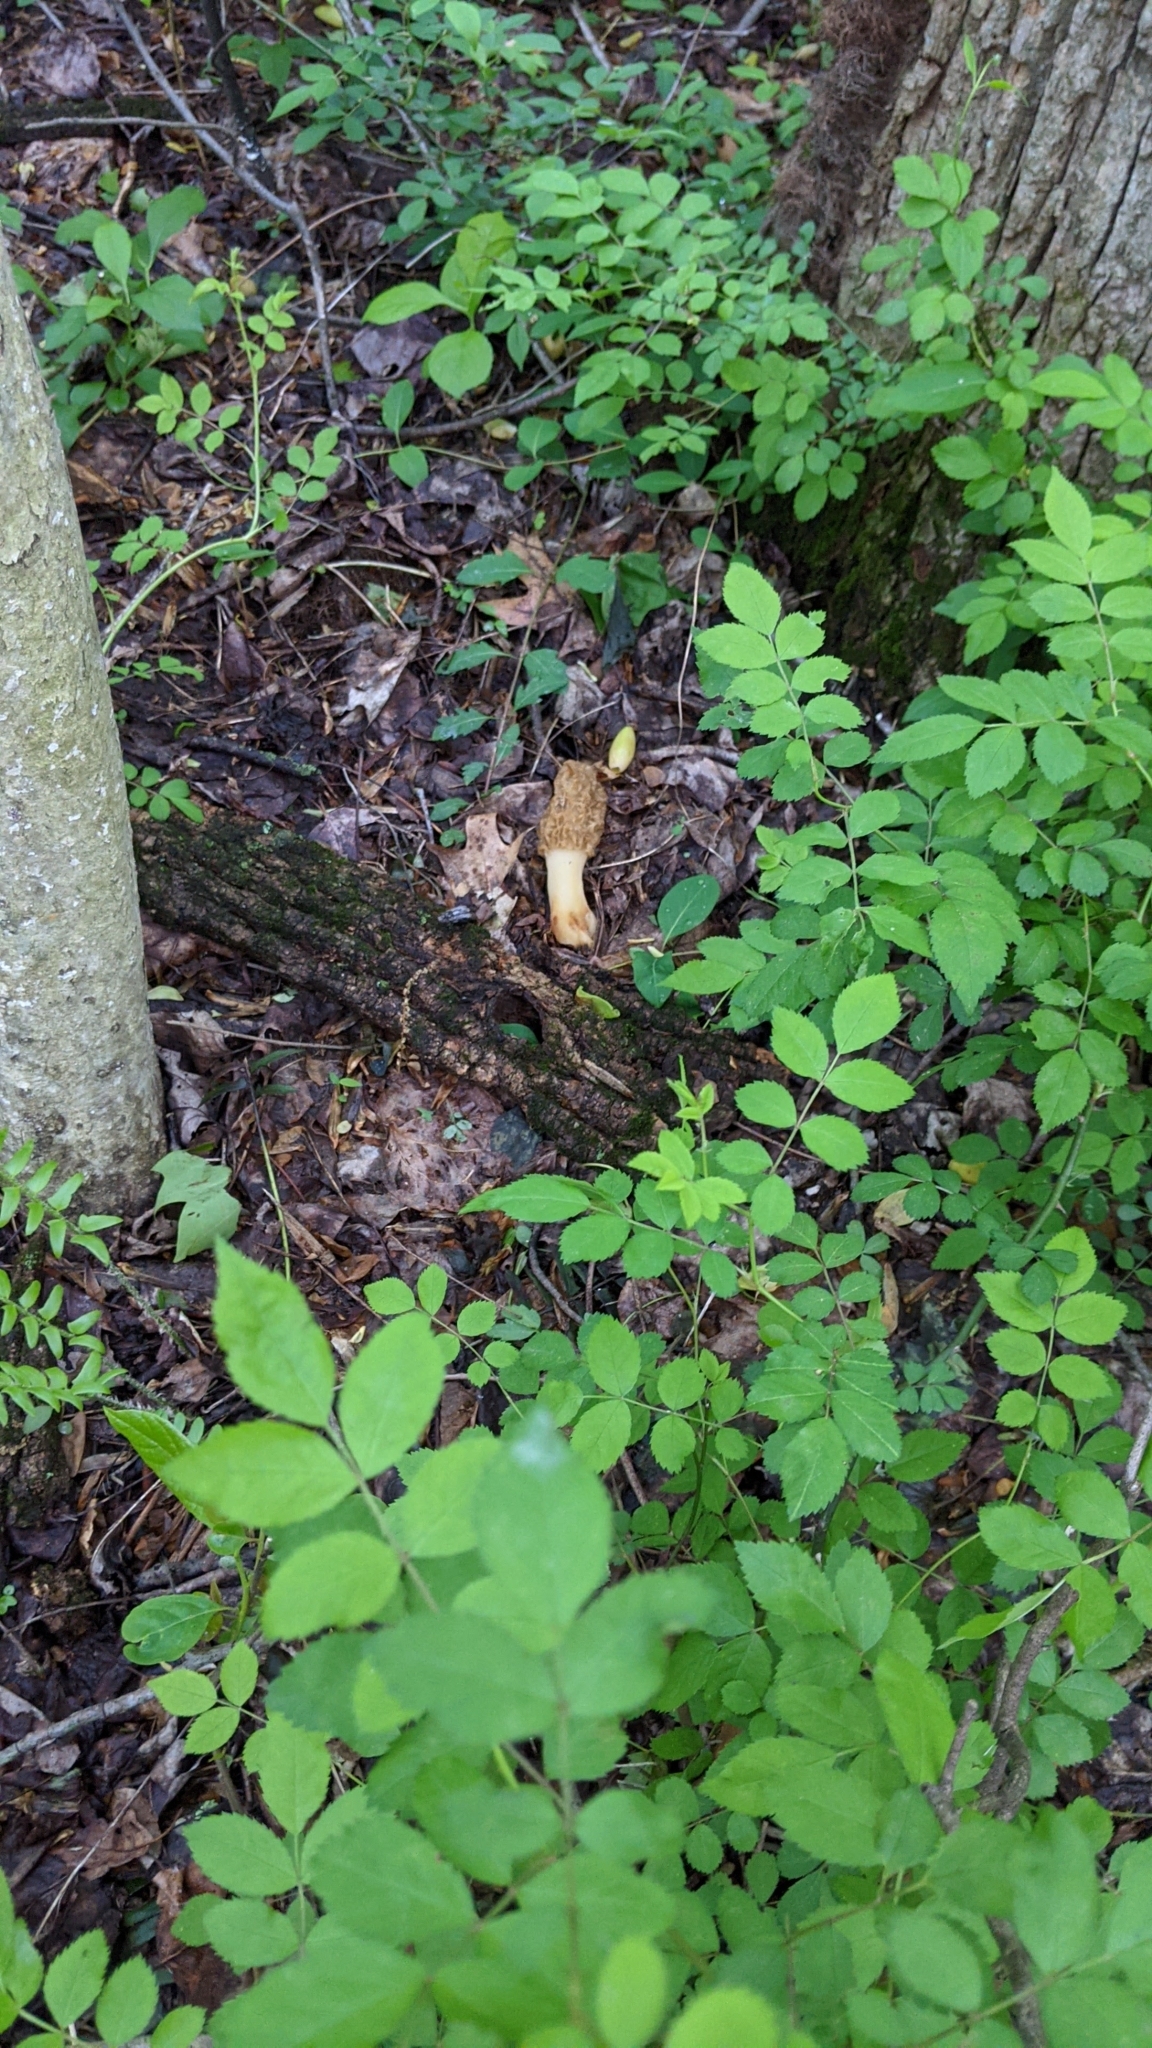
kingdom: Fungi
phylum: Ascomycota
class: Pezizomycetes
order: Pezizales
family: Morchellaceae
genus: Morchella
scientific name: Morchella americana
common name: White morel
